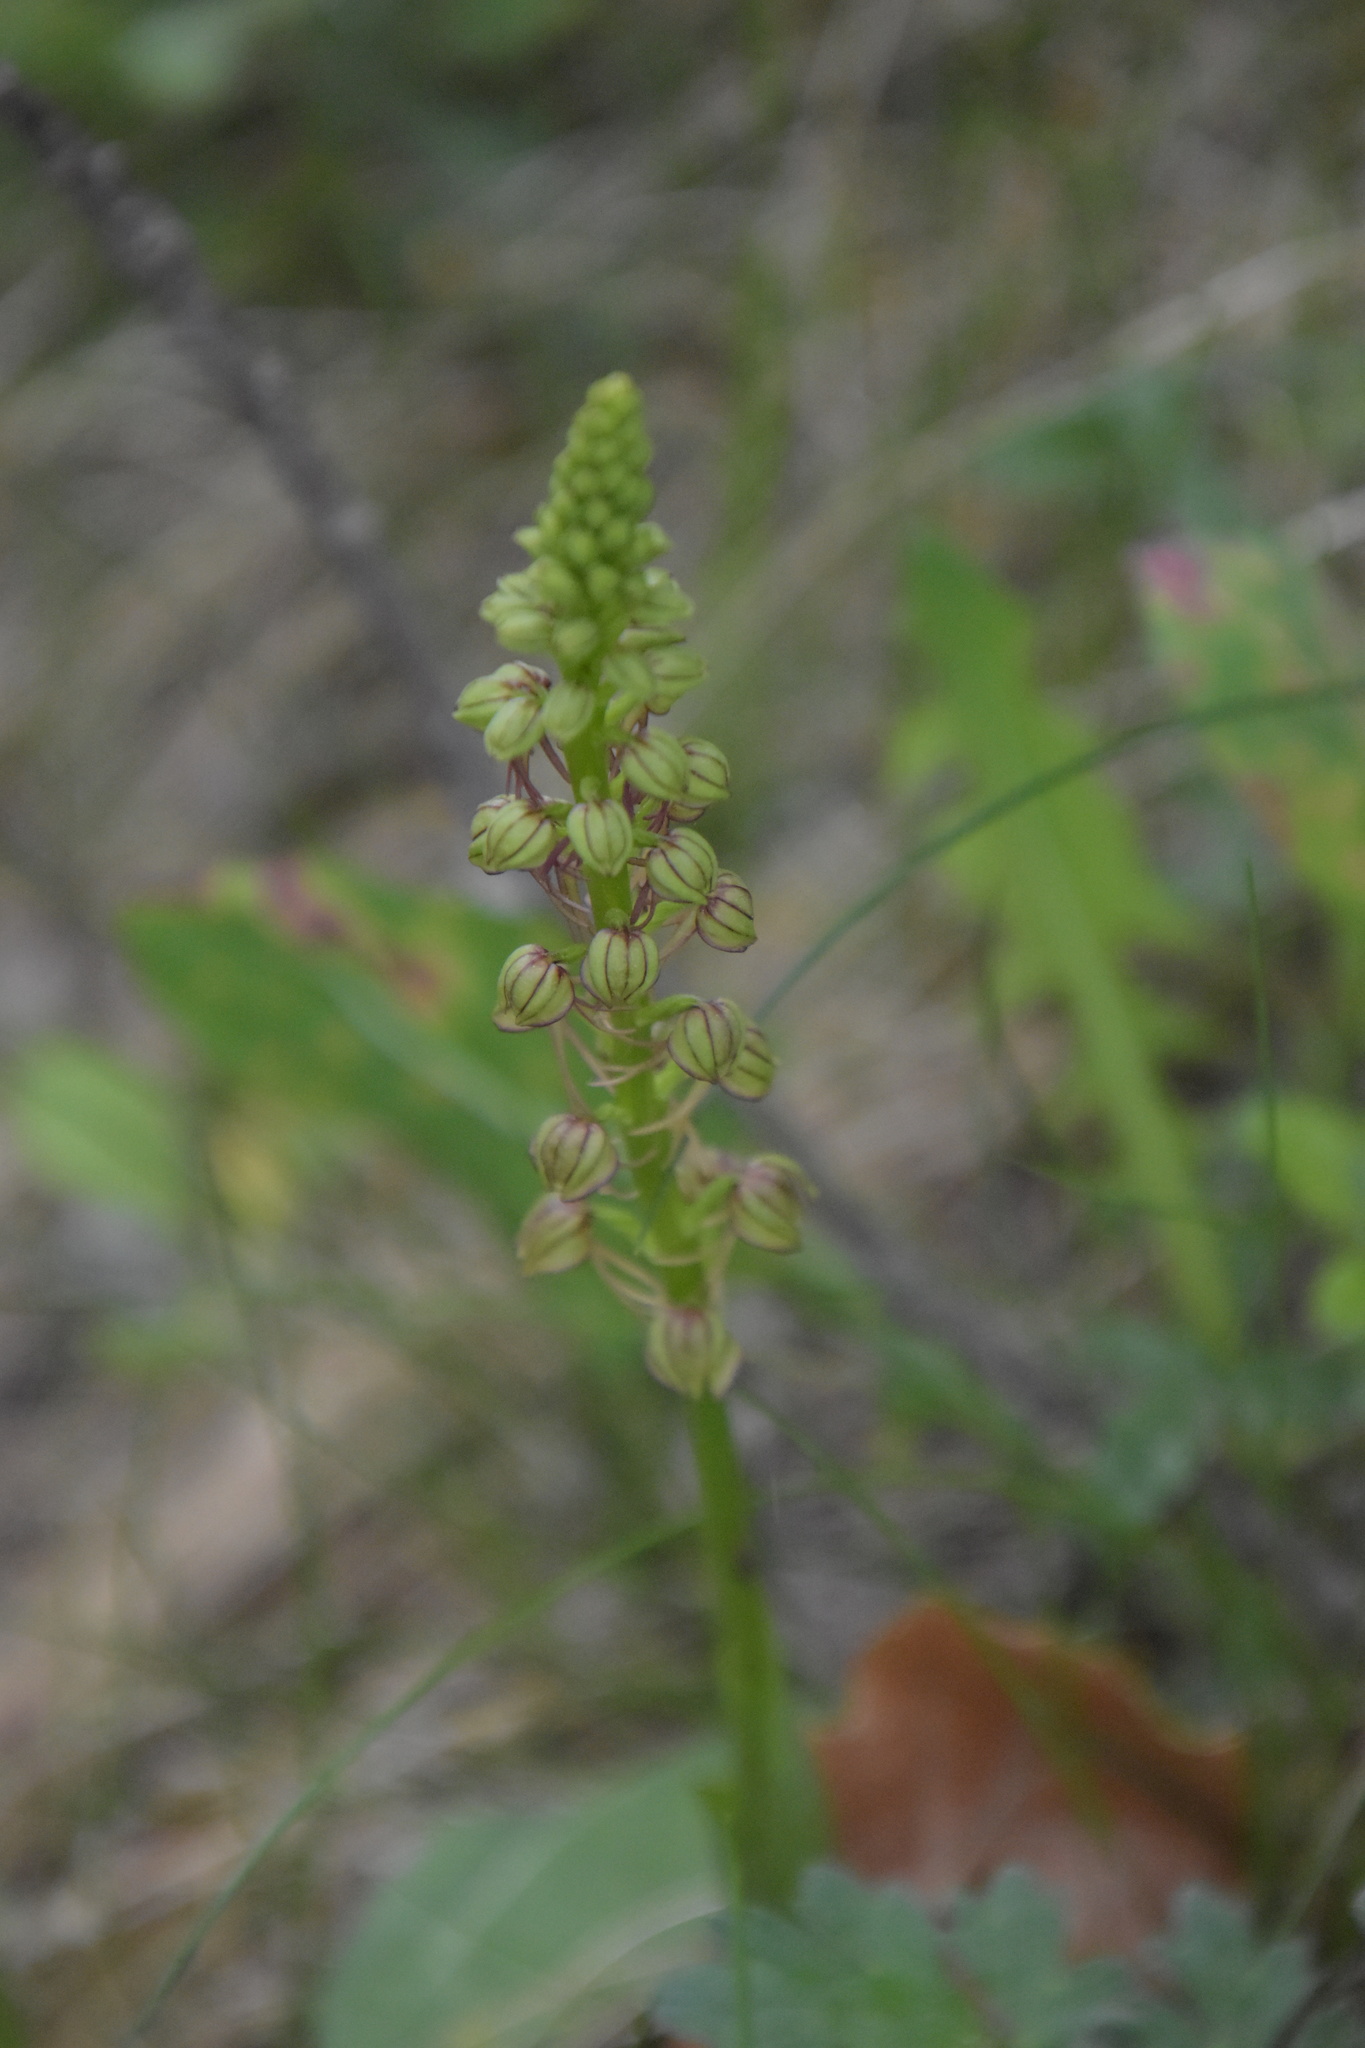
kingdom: Plantae
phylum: Tracheophyta
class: Liliopsida
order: Asparagales
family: Orchidaceae
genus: Orchis
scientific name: Orchis anthropophora
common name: Man orchid
